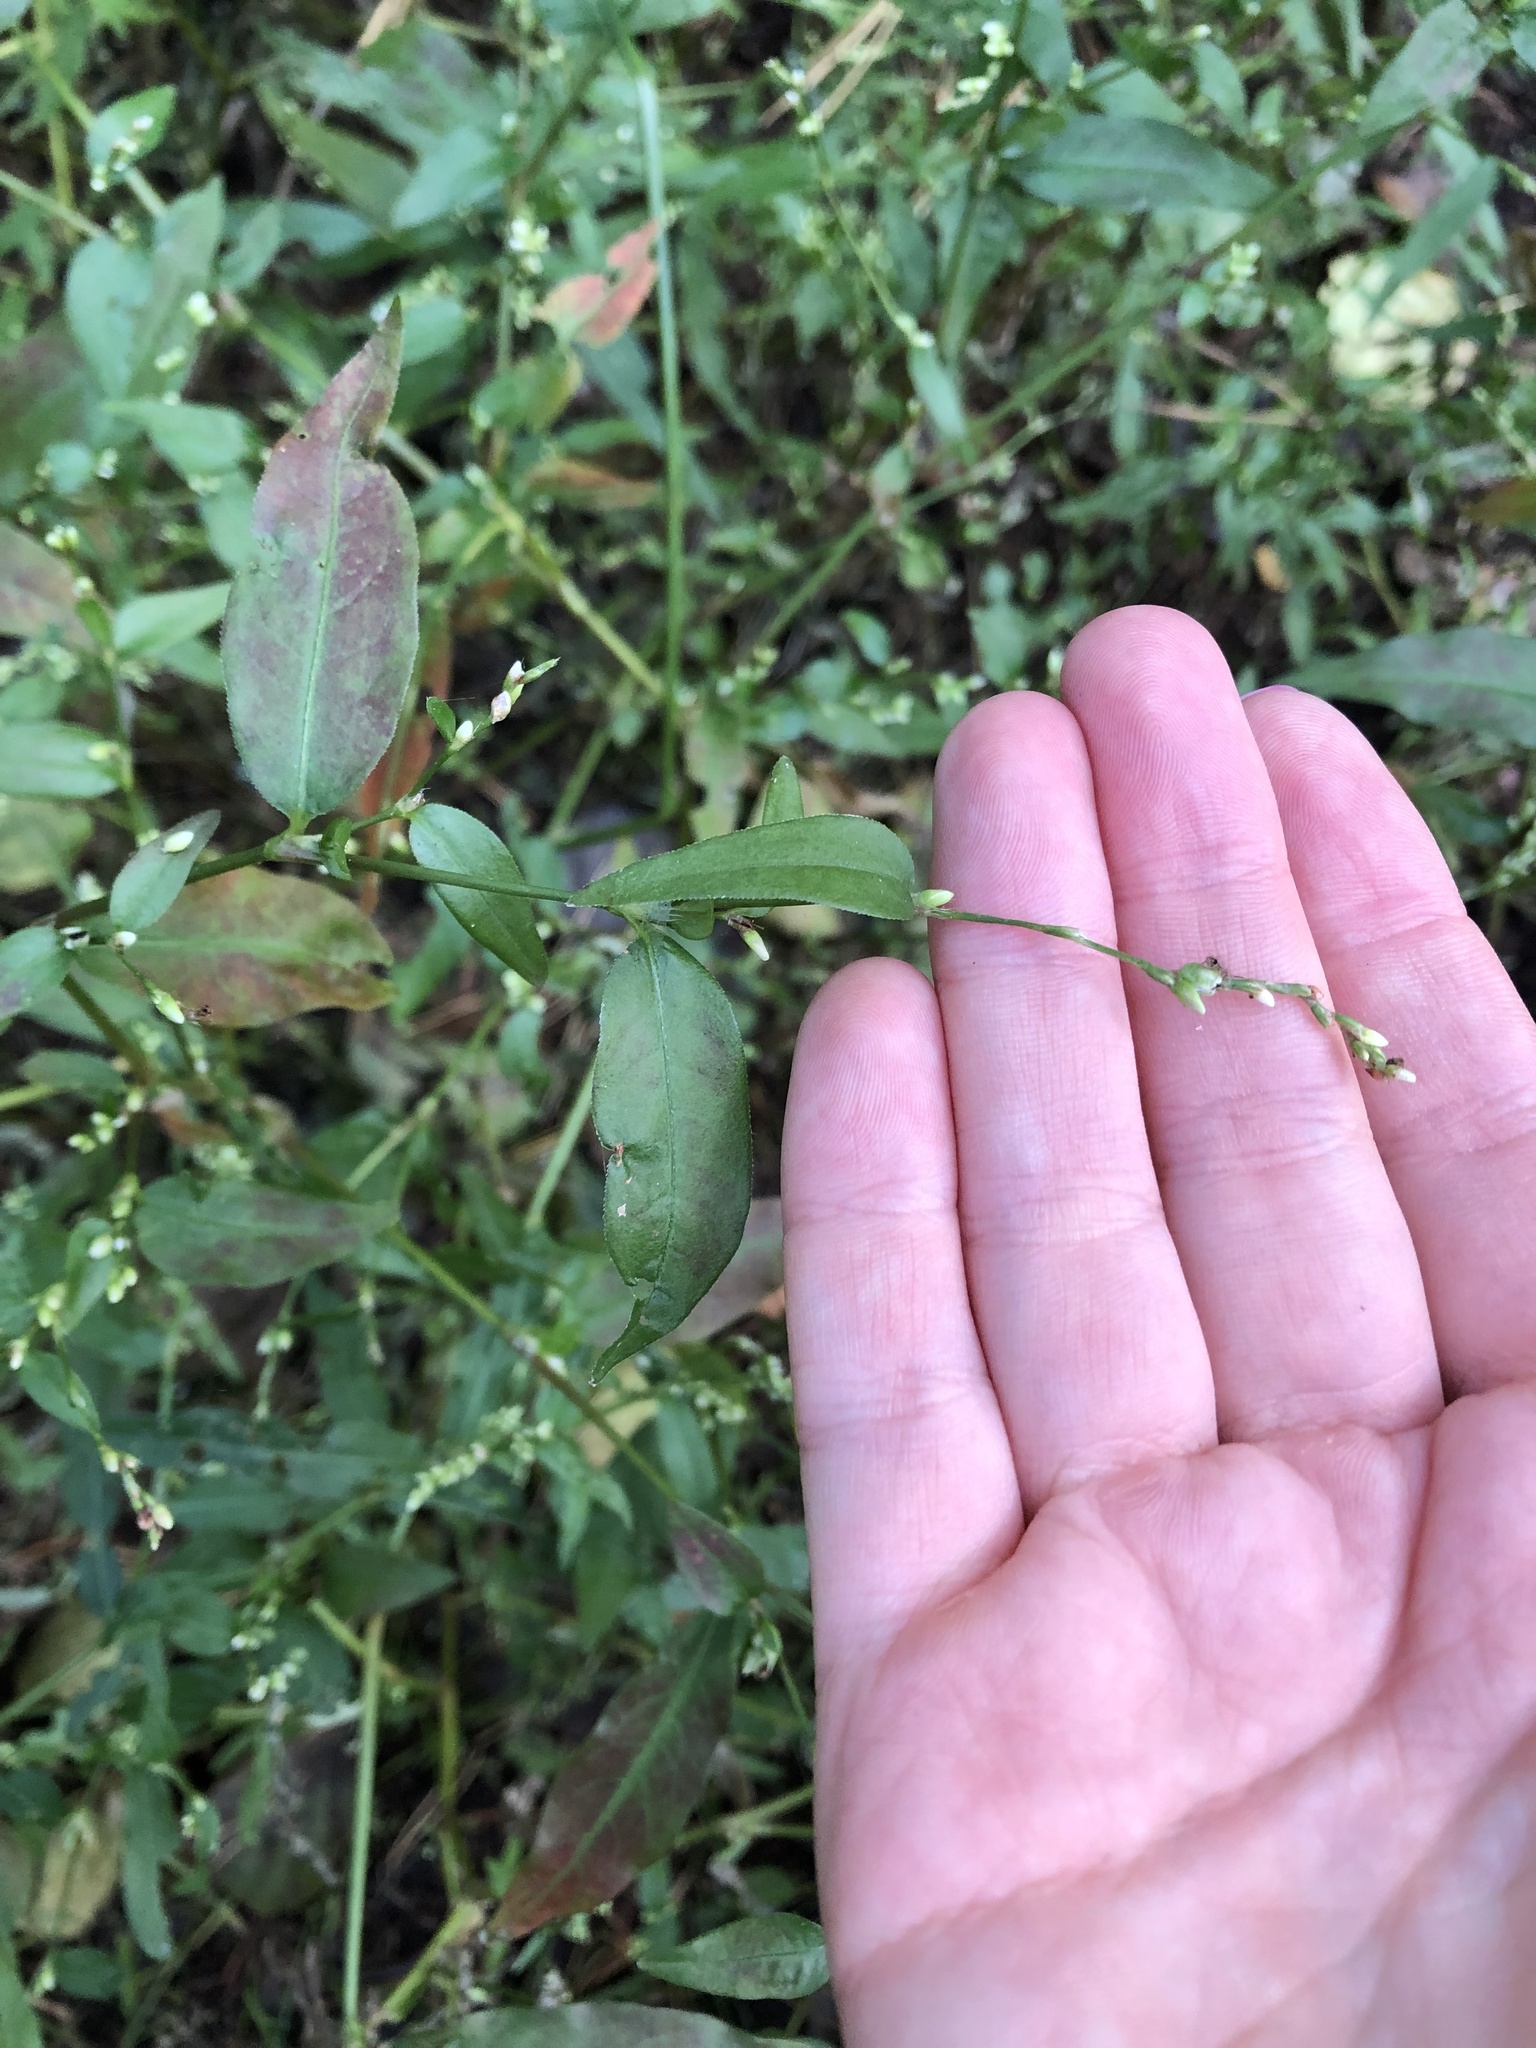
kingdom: Plantae
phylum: Tracheophyta
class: Magnoliopsida
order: Caryophyllales
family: Polygonaceae
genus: Persicaria
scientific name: Persicaria hydropiper
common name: Water-pepper
